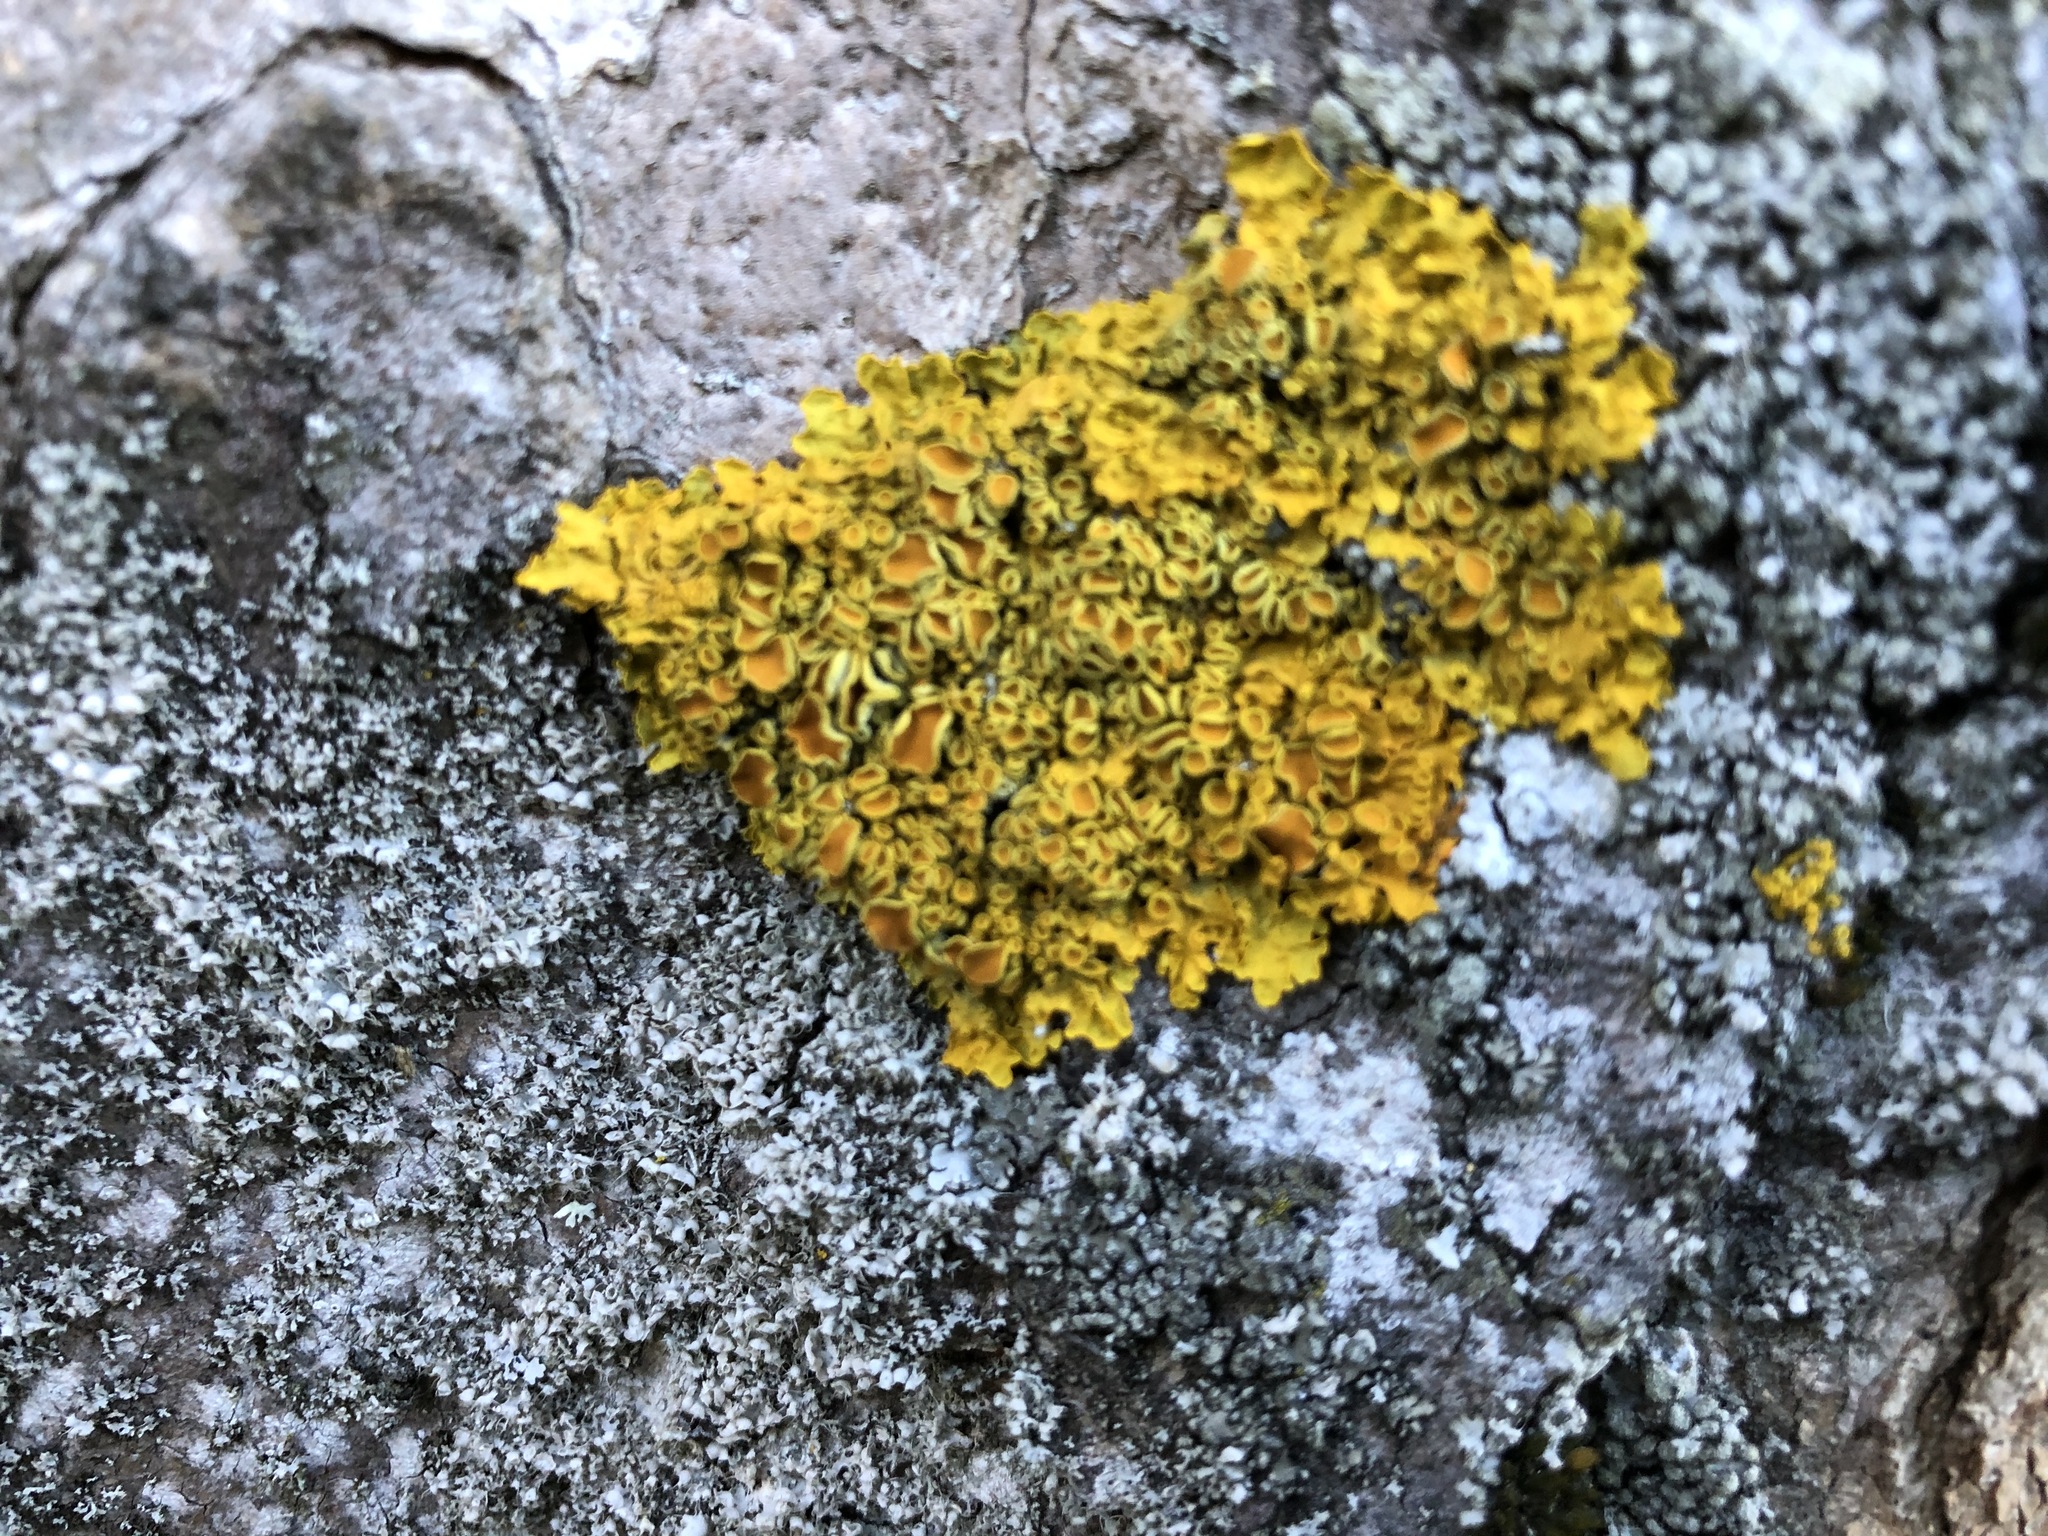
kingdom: Fungi
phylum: Ascomycota
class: Lecanoromycetes
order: Teloschistales
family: Teloschistaceae
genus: Xanthoria
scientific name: Xanthoria parietina
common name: Common orange lichen
